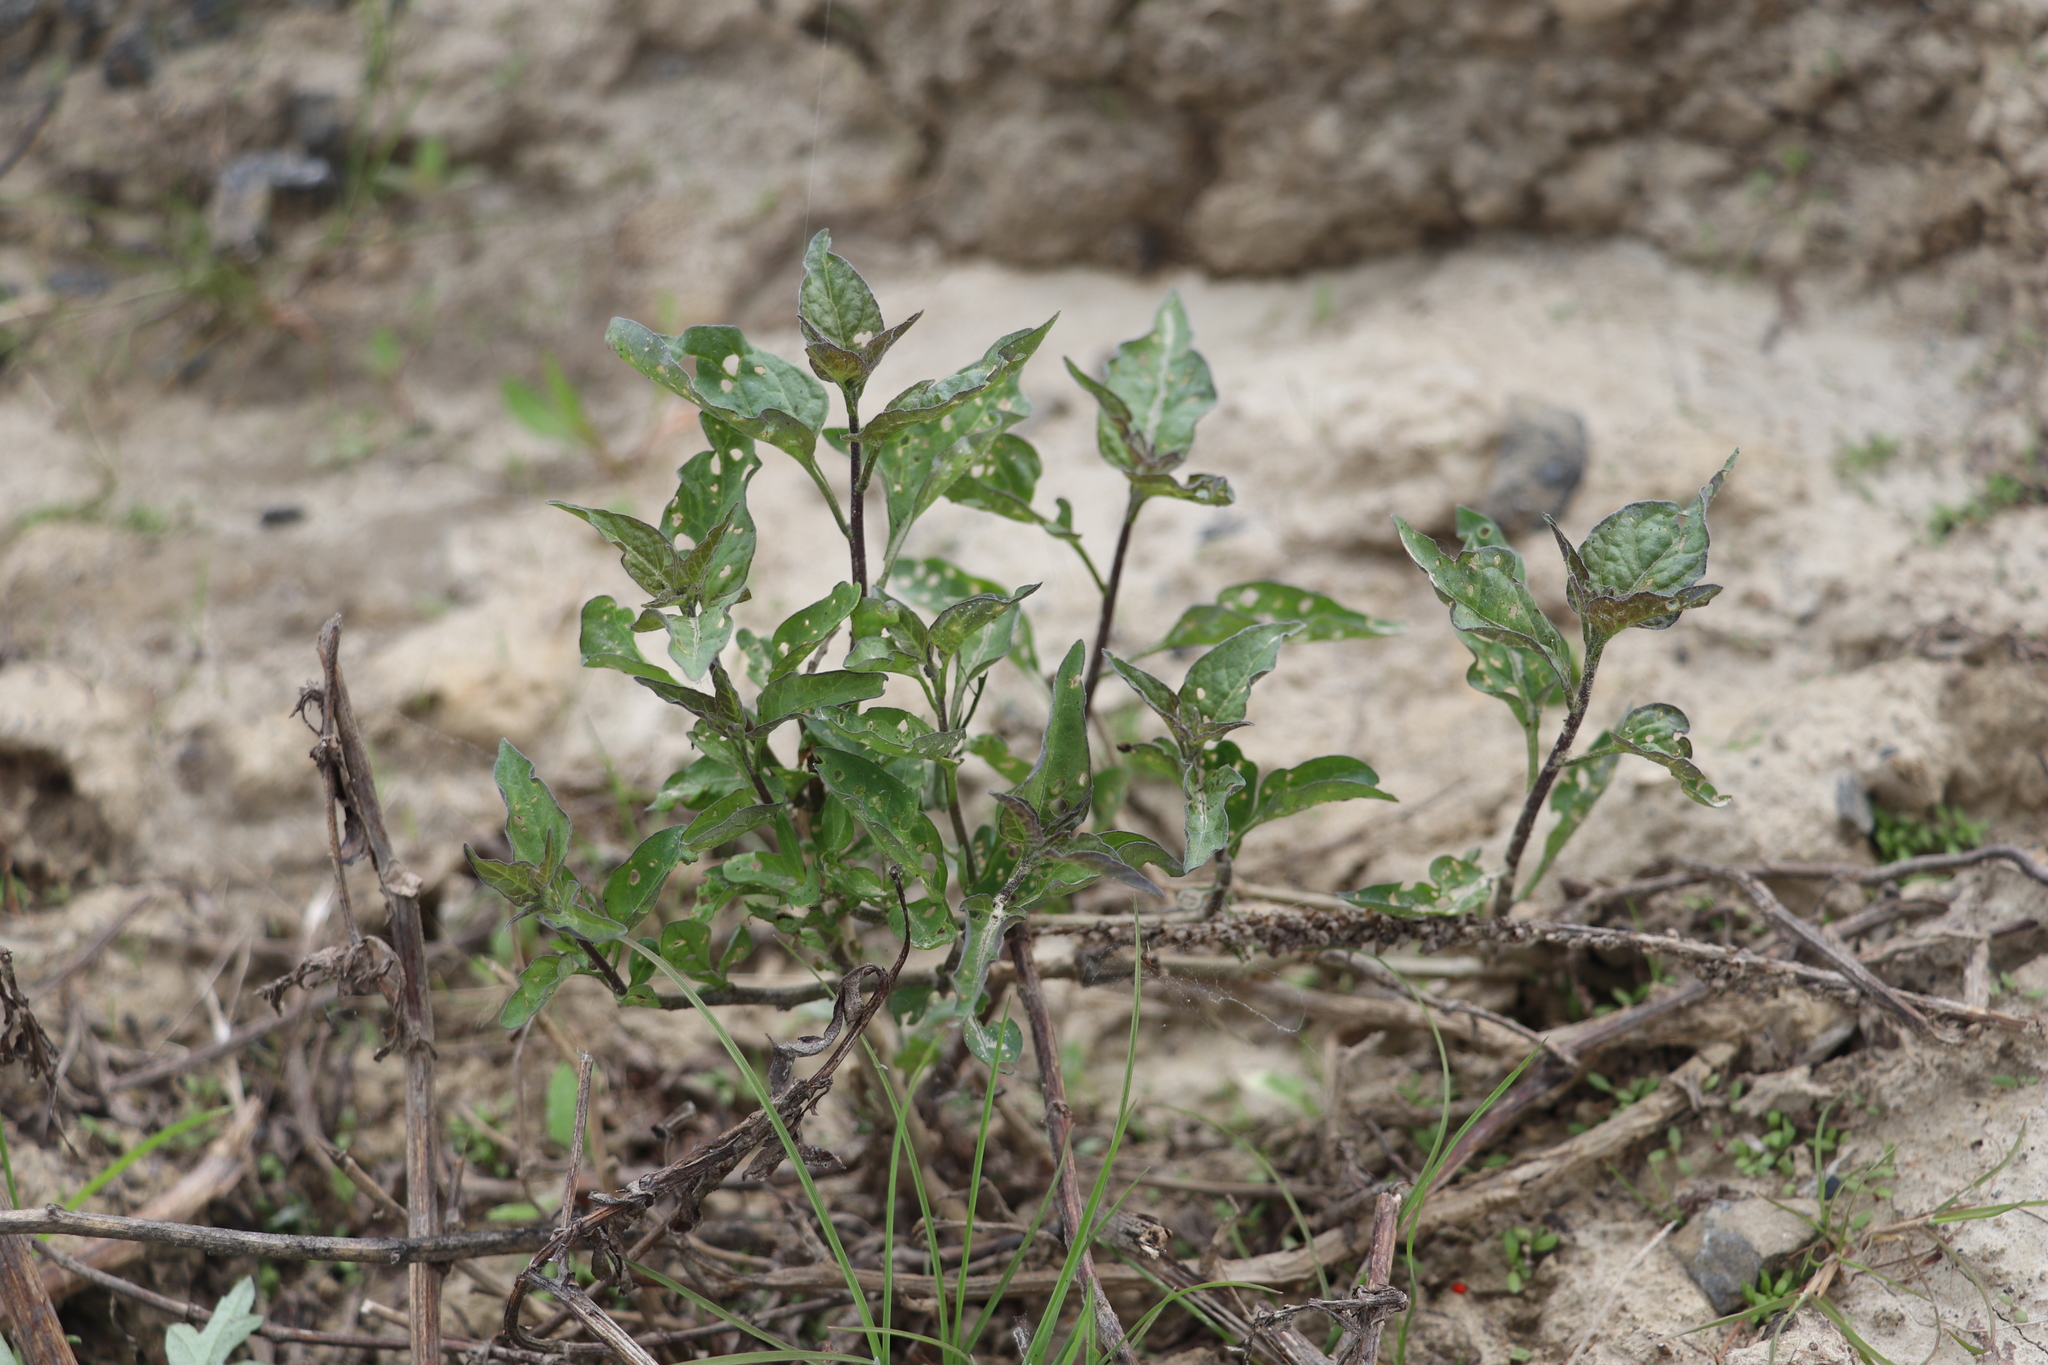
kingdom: Plantae
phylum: Tracheophyta
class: Magnoliopsida
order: Solanales
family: Solanaceae
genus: Solanum
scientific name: Solanum dulcamara
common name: Climbing nightshade
